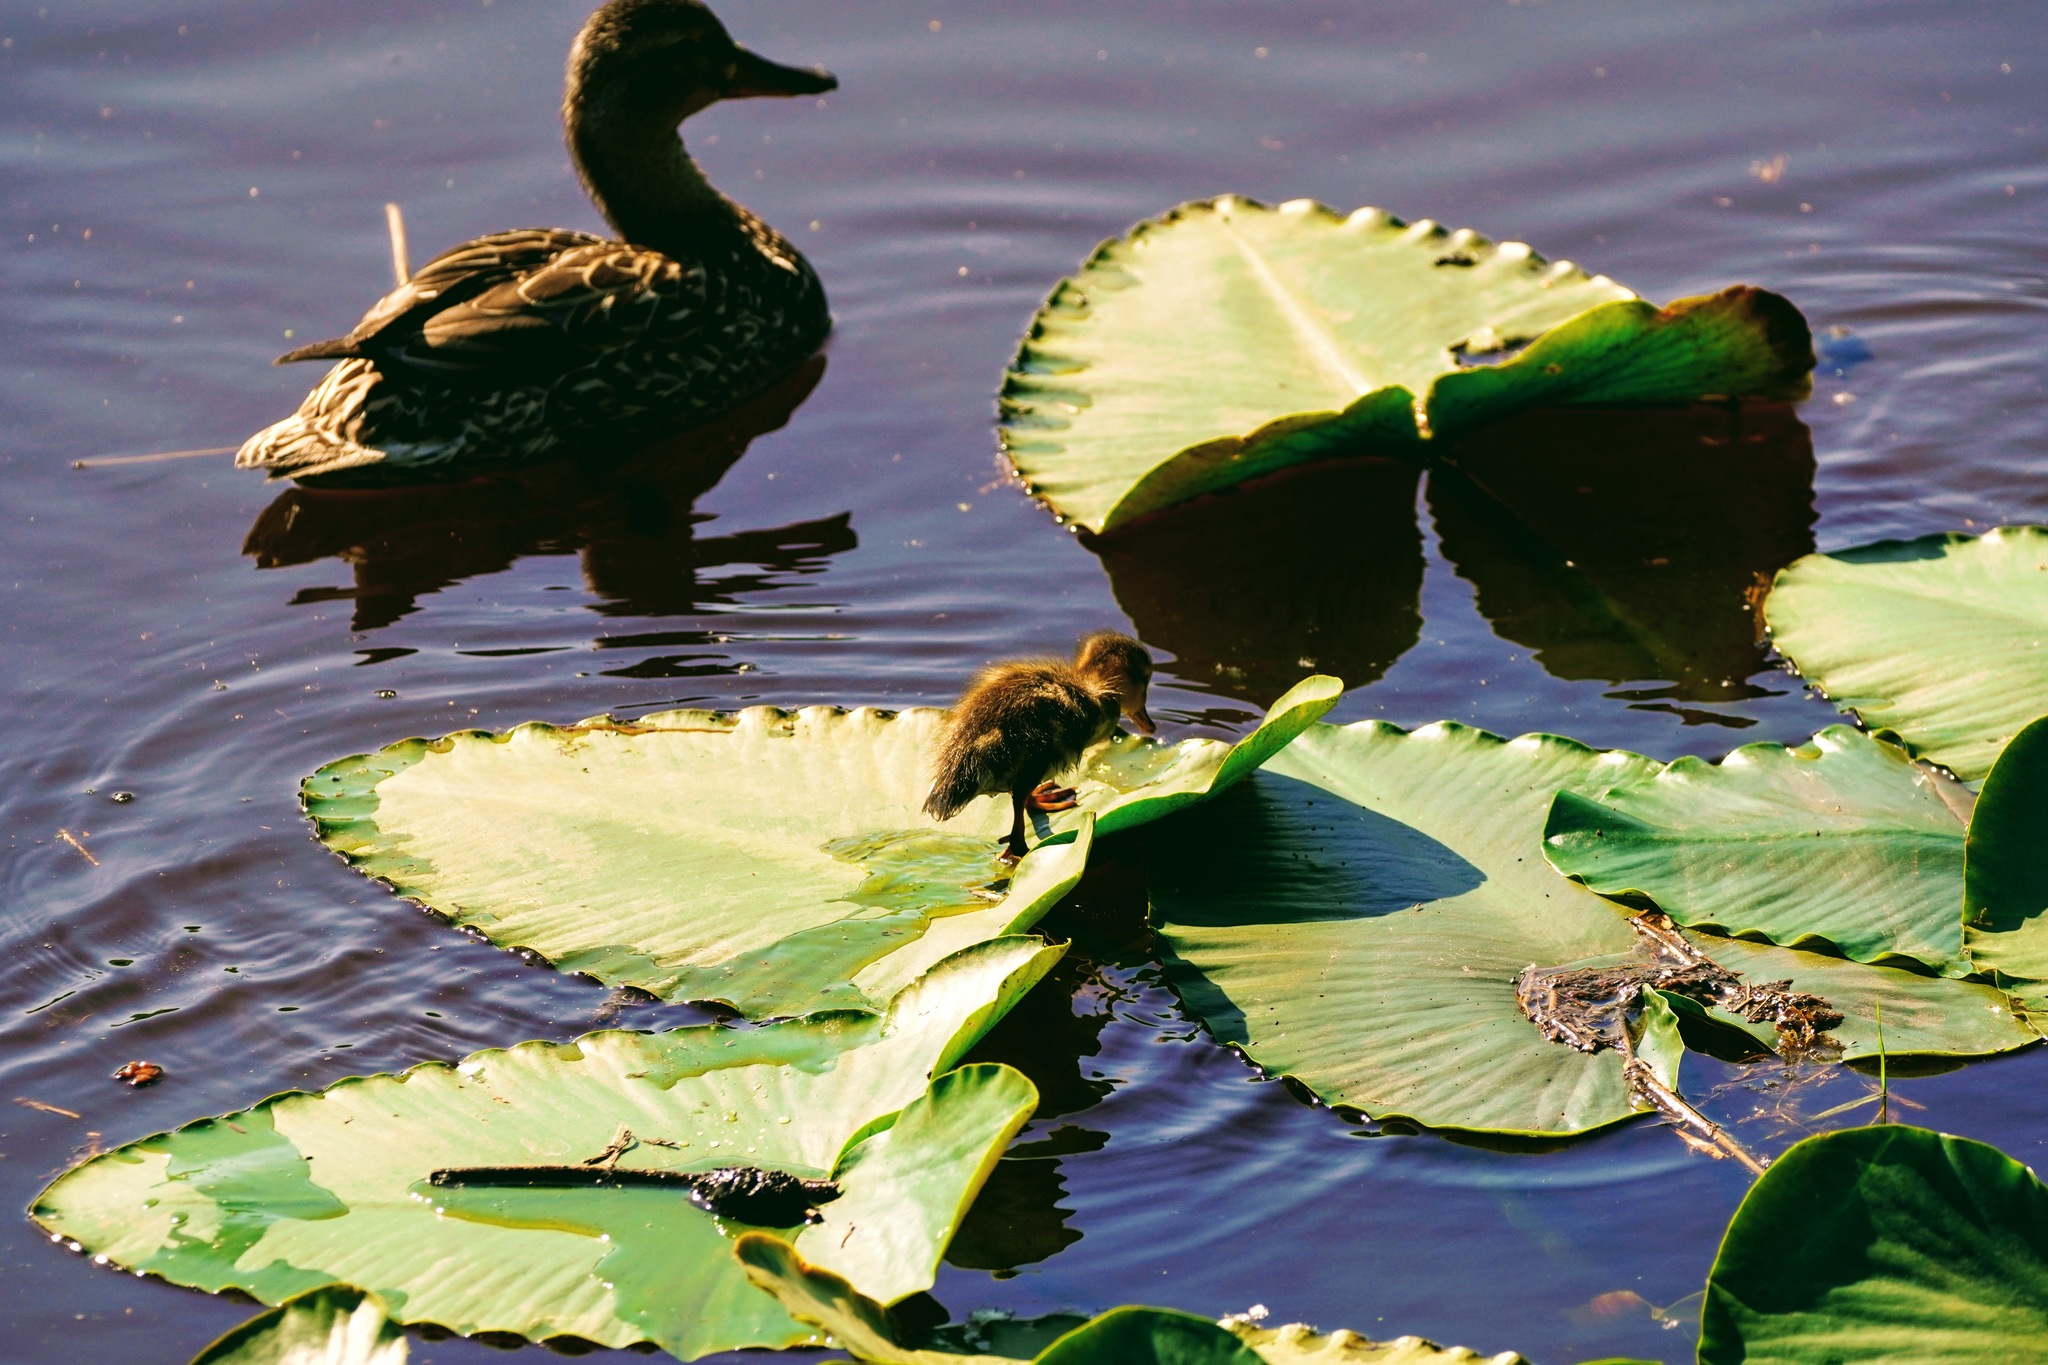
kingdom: Animalia
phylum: Chordata
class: Aves
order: Anseriformes
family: Anatidae
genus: Anas
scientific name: Anas platyrhynchos
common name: Mallard
